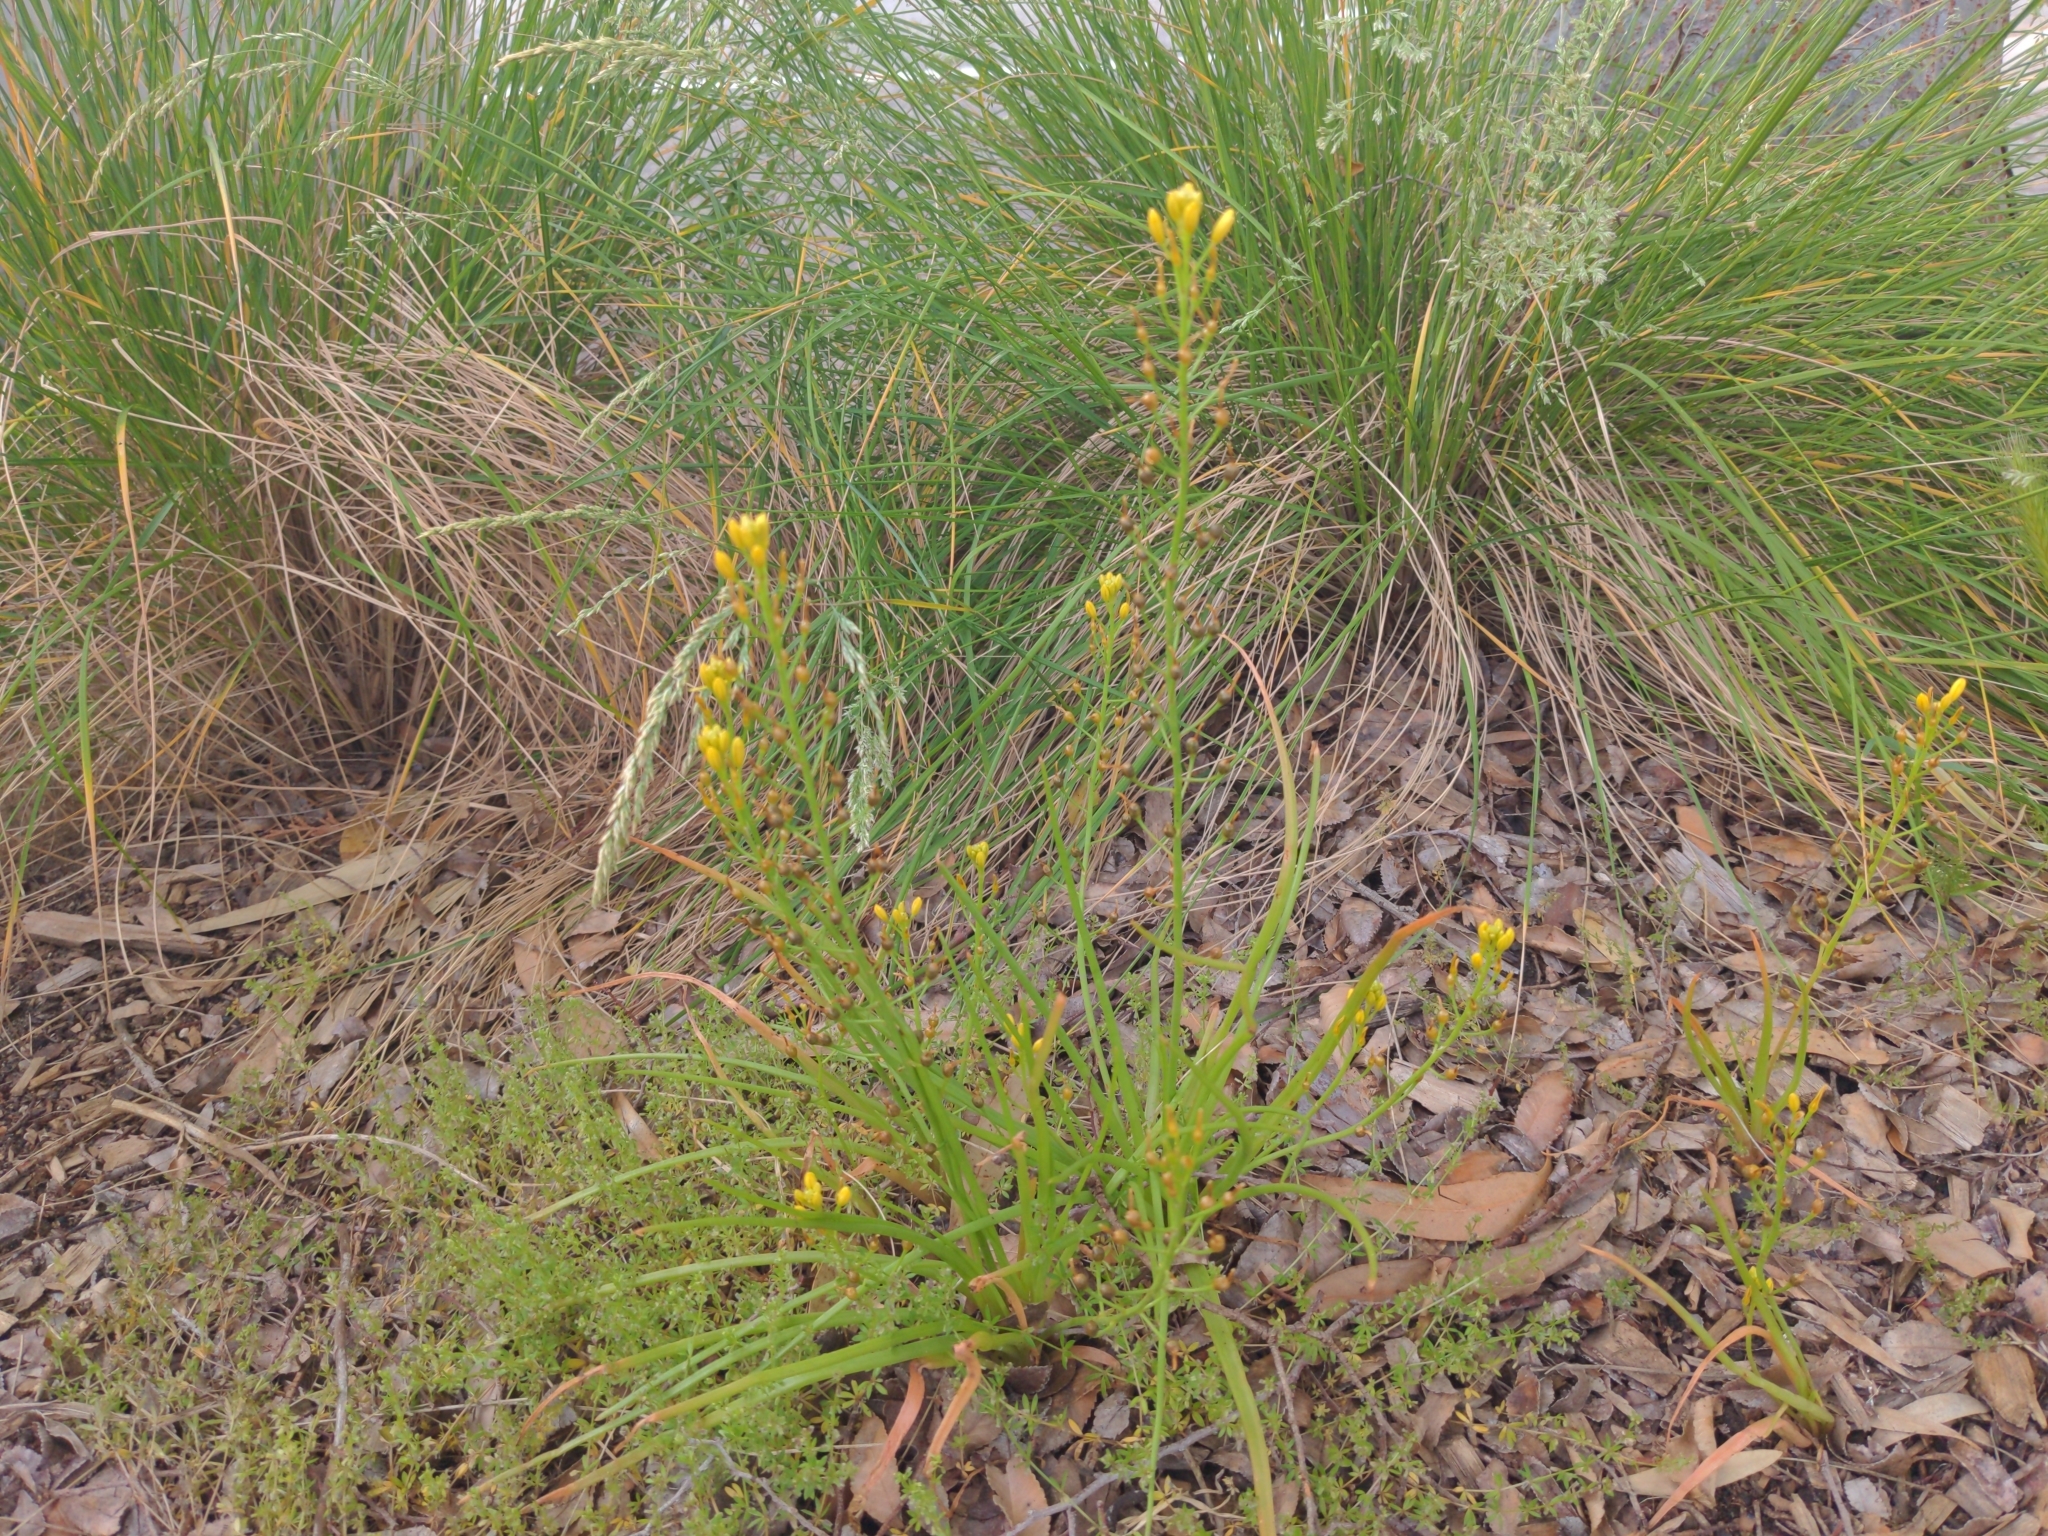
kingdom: Plantae
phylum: Tracheophyta
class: Liliopsida
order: Asparagales
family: Asphodelaceae
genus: Bulbine
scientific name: Bulbine bulbosa
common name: Golden-lily
